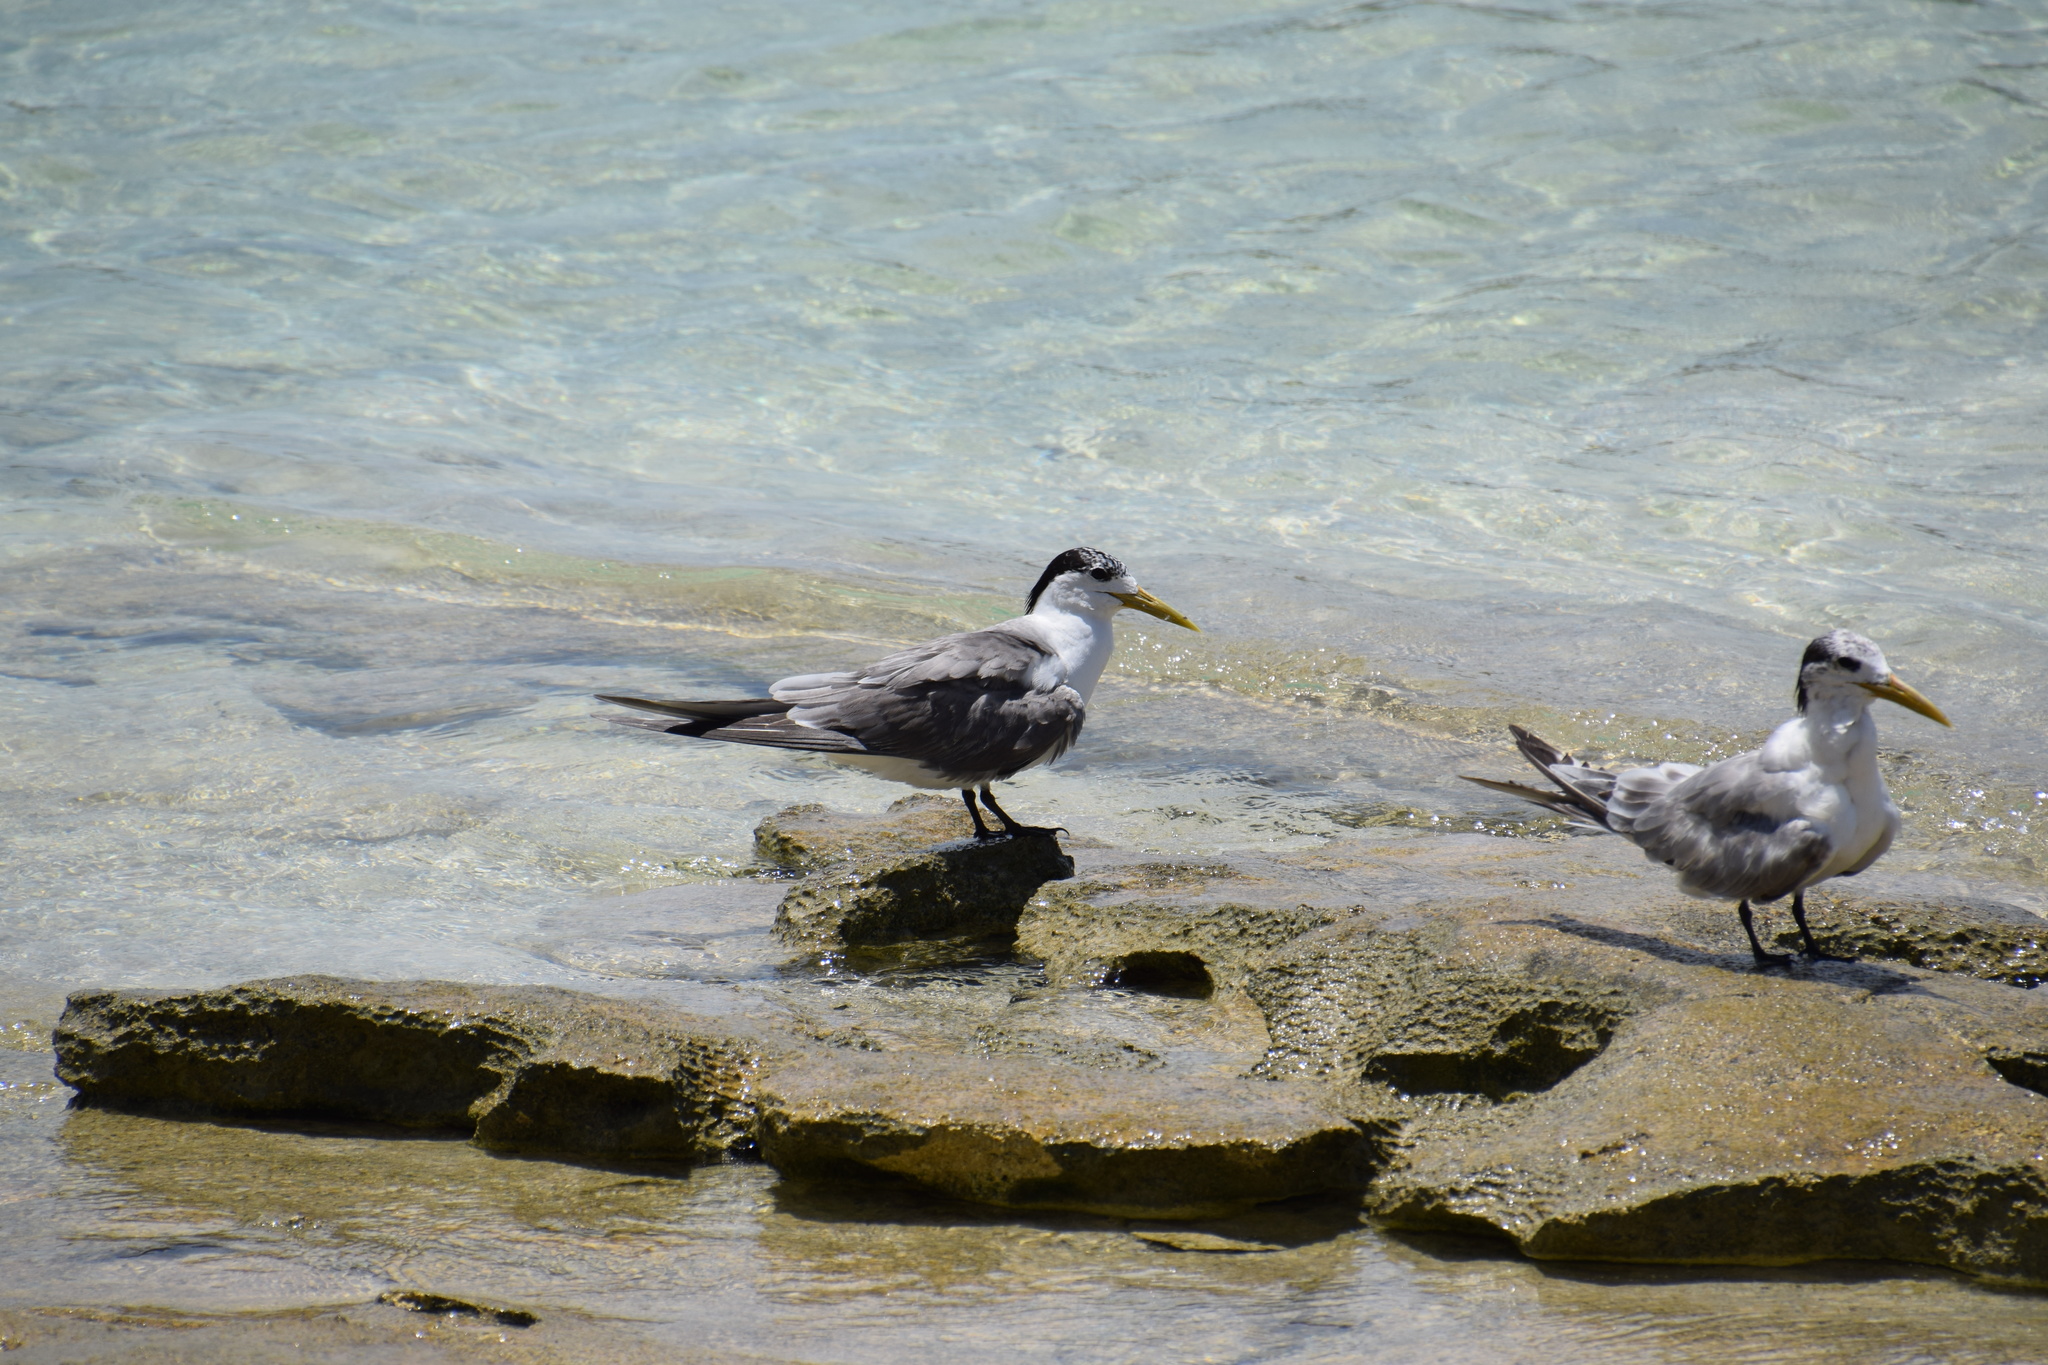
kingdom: Animalia
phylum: Chordata
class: Aves
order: Charadriiformes
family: Laridae
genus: Thalasseus
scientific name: Thalasseus bergii
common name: Greater crested tern
